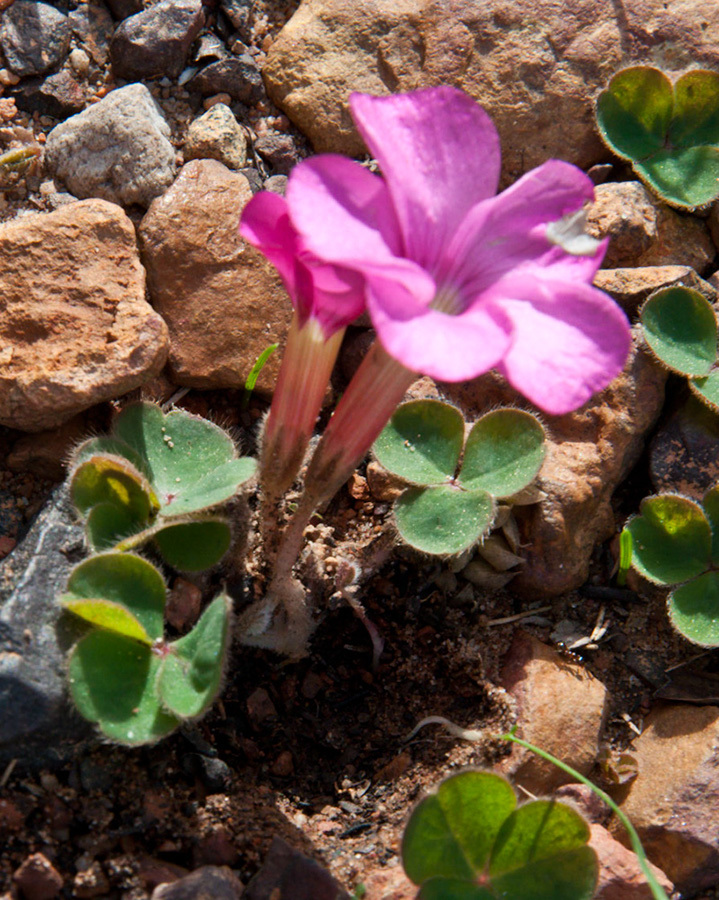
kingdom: Plantae
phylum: Tracheophyta
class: Magnoliopsida
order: Oxalidales
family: Oxalidaceae
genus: Oxalis
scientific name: Oxalis eckloniana
